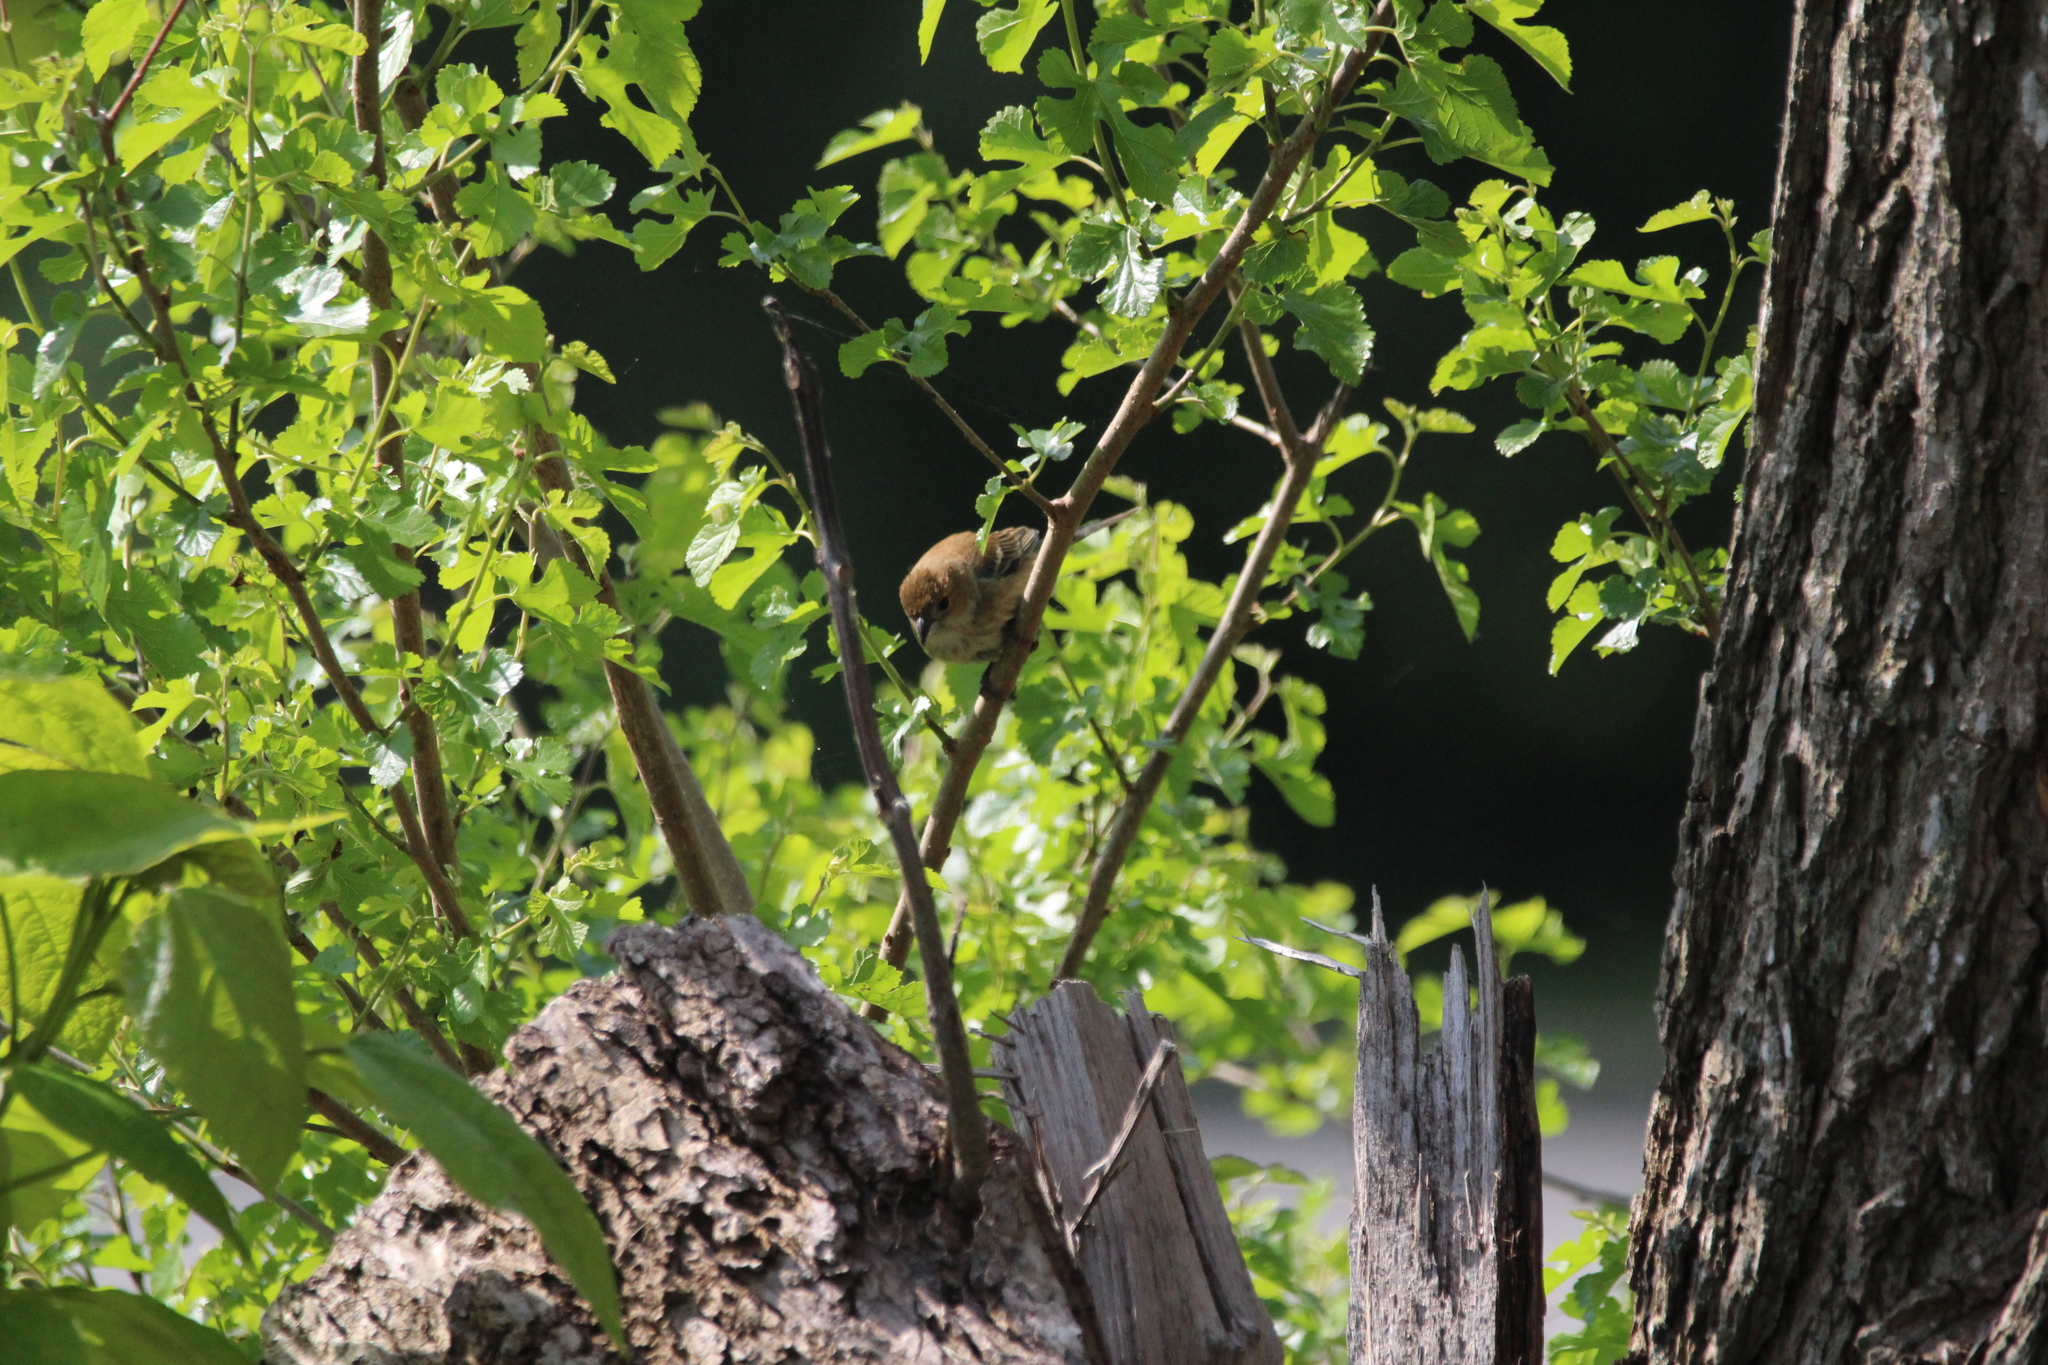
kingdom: Animalia
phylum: Chordata
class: Aves
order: Passeriformes
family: Cardinalidae
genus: Passerina
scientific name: Passerina cyanea
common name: Indigo bunting
